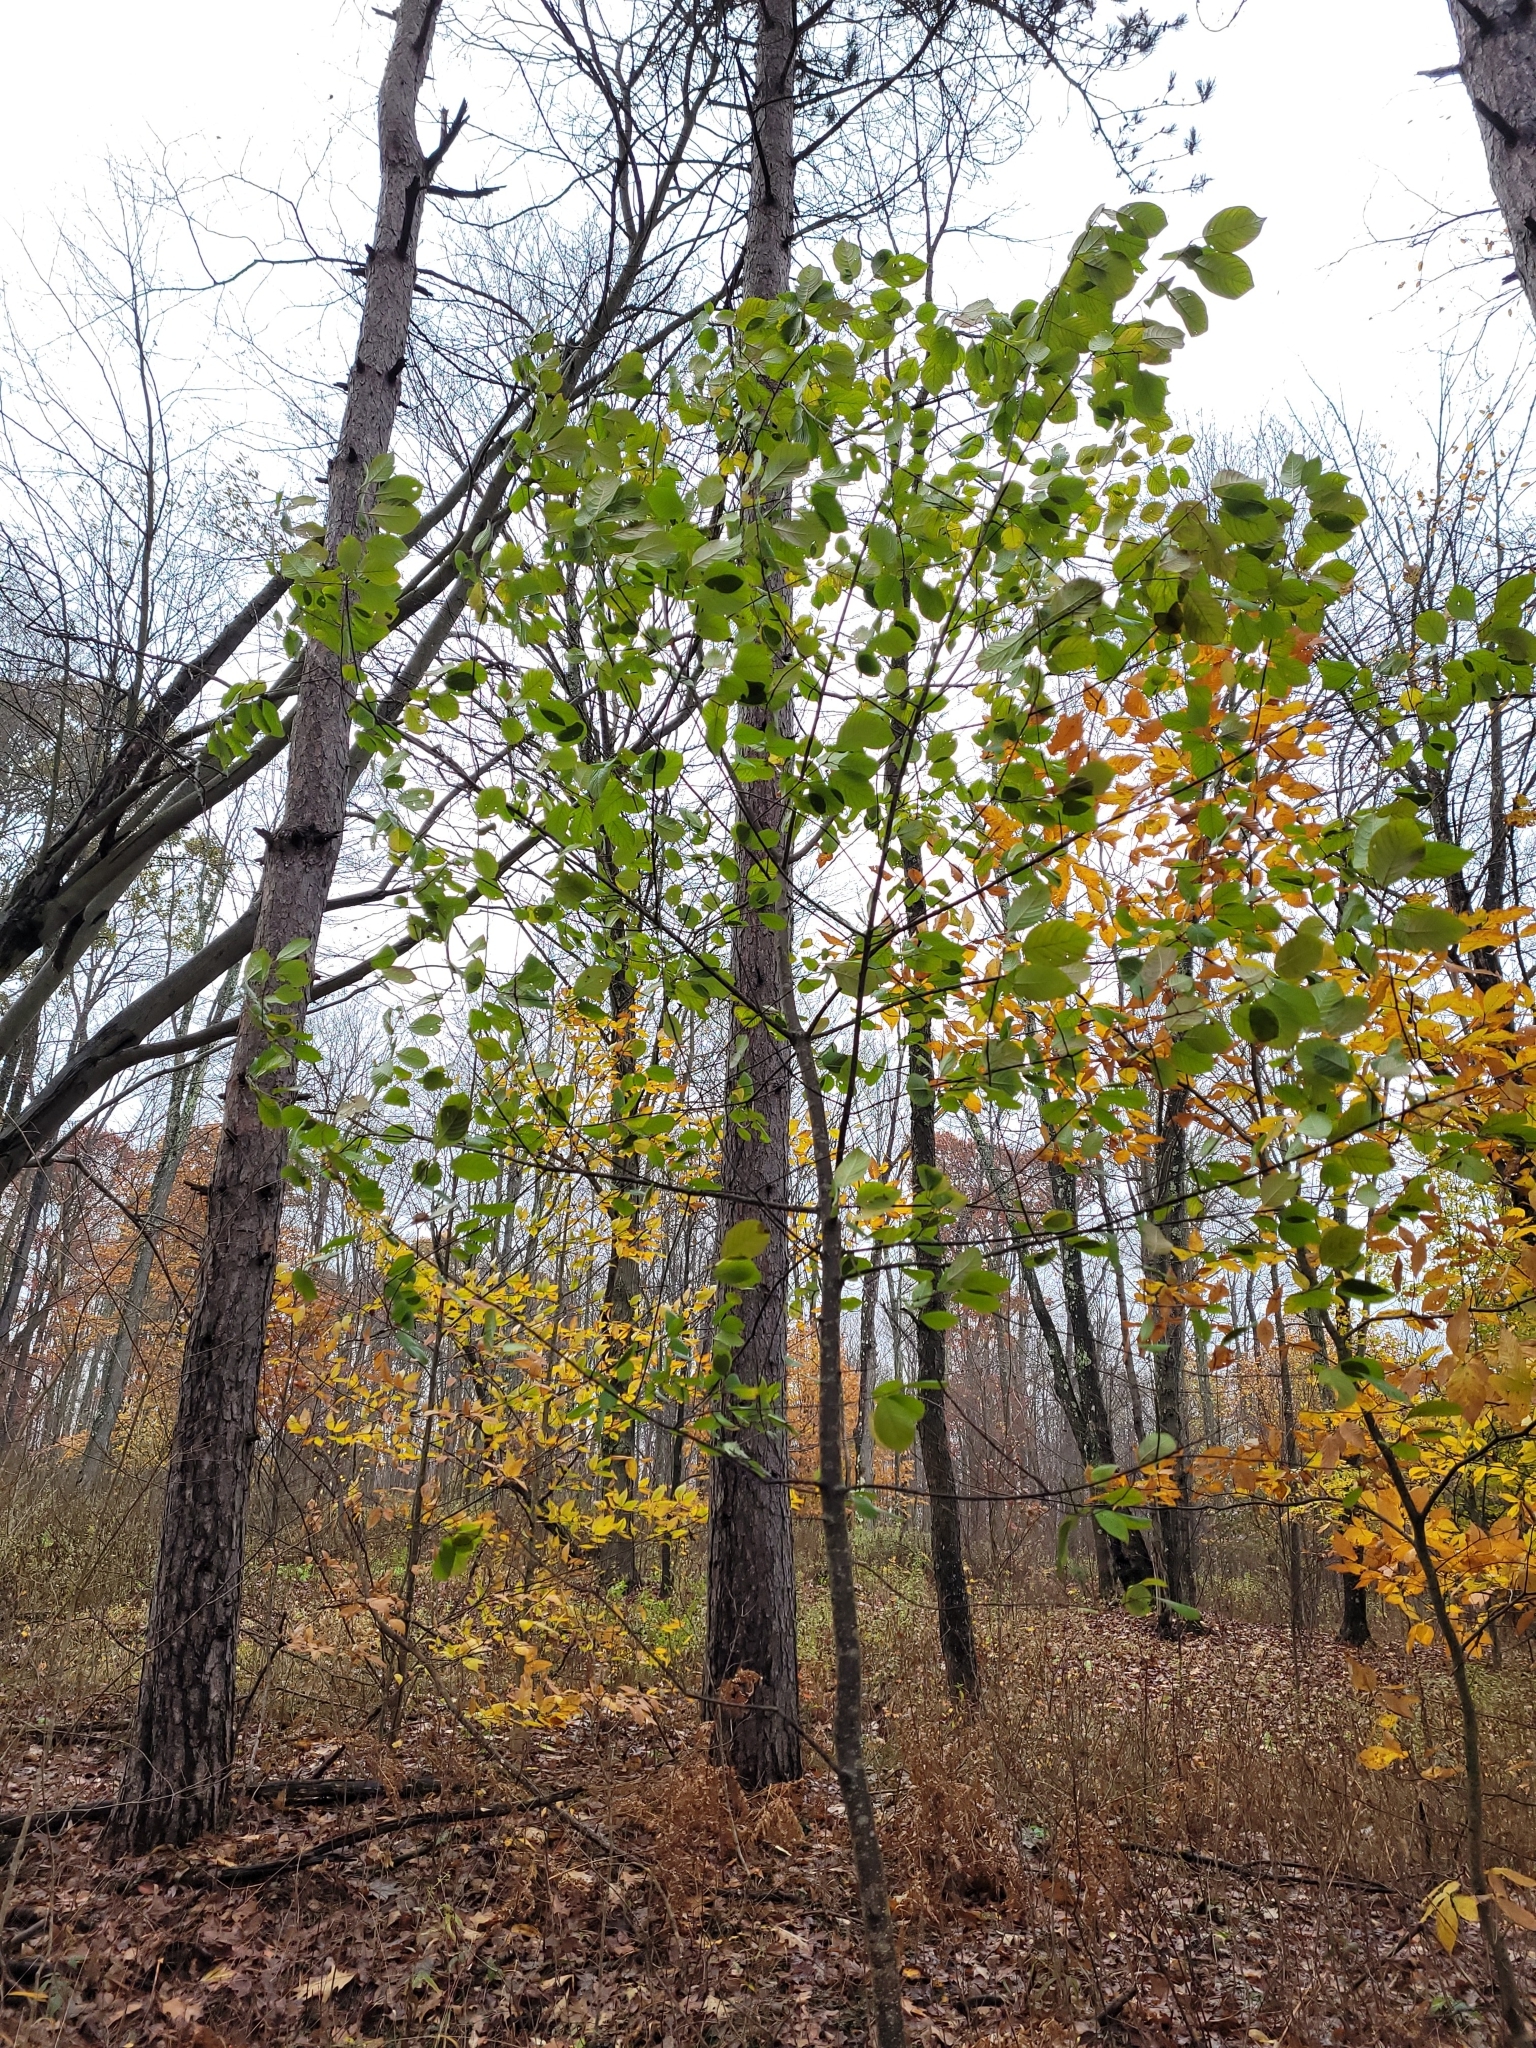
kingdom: Plantae
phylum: Tracheophyta
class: Magnoliopsida
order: Rosales
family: Rhamnaceae
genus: Frangula
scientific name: Frangula alnus
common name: Alder buckthorn
